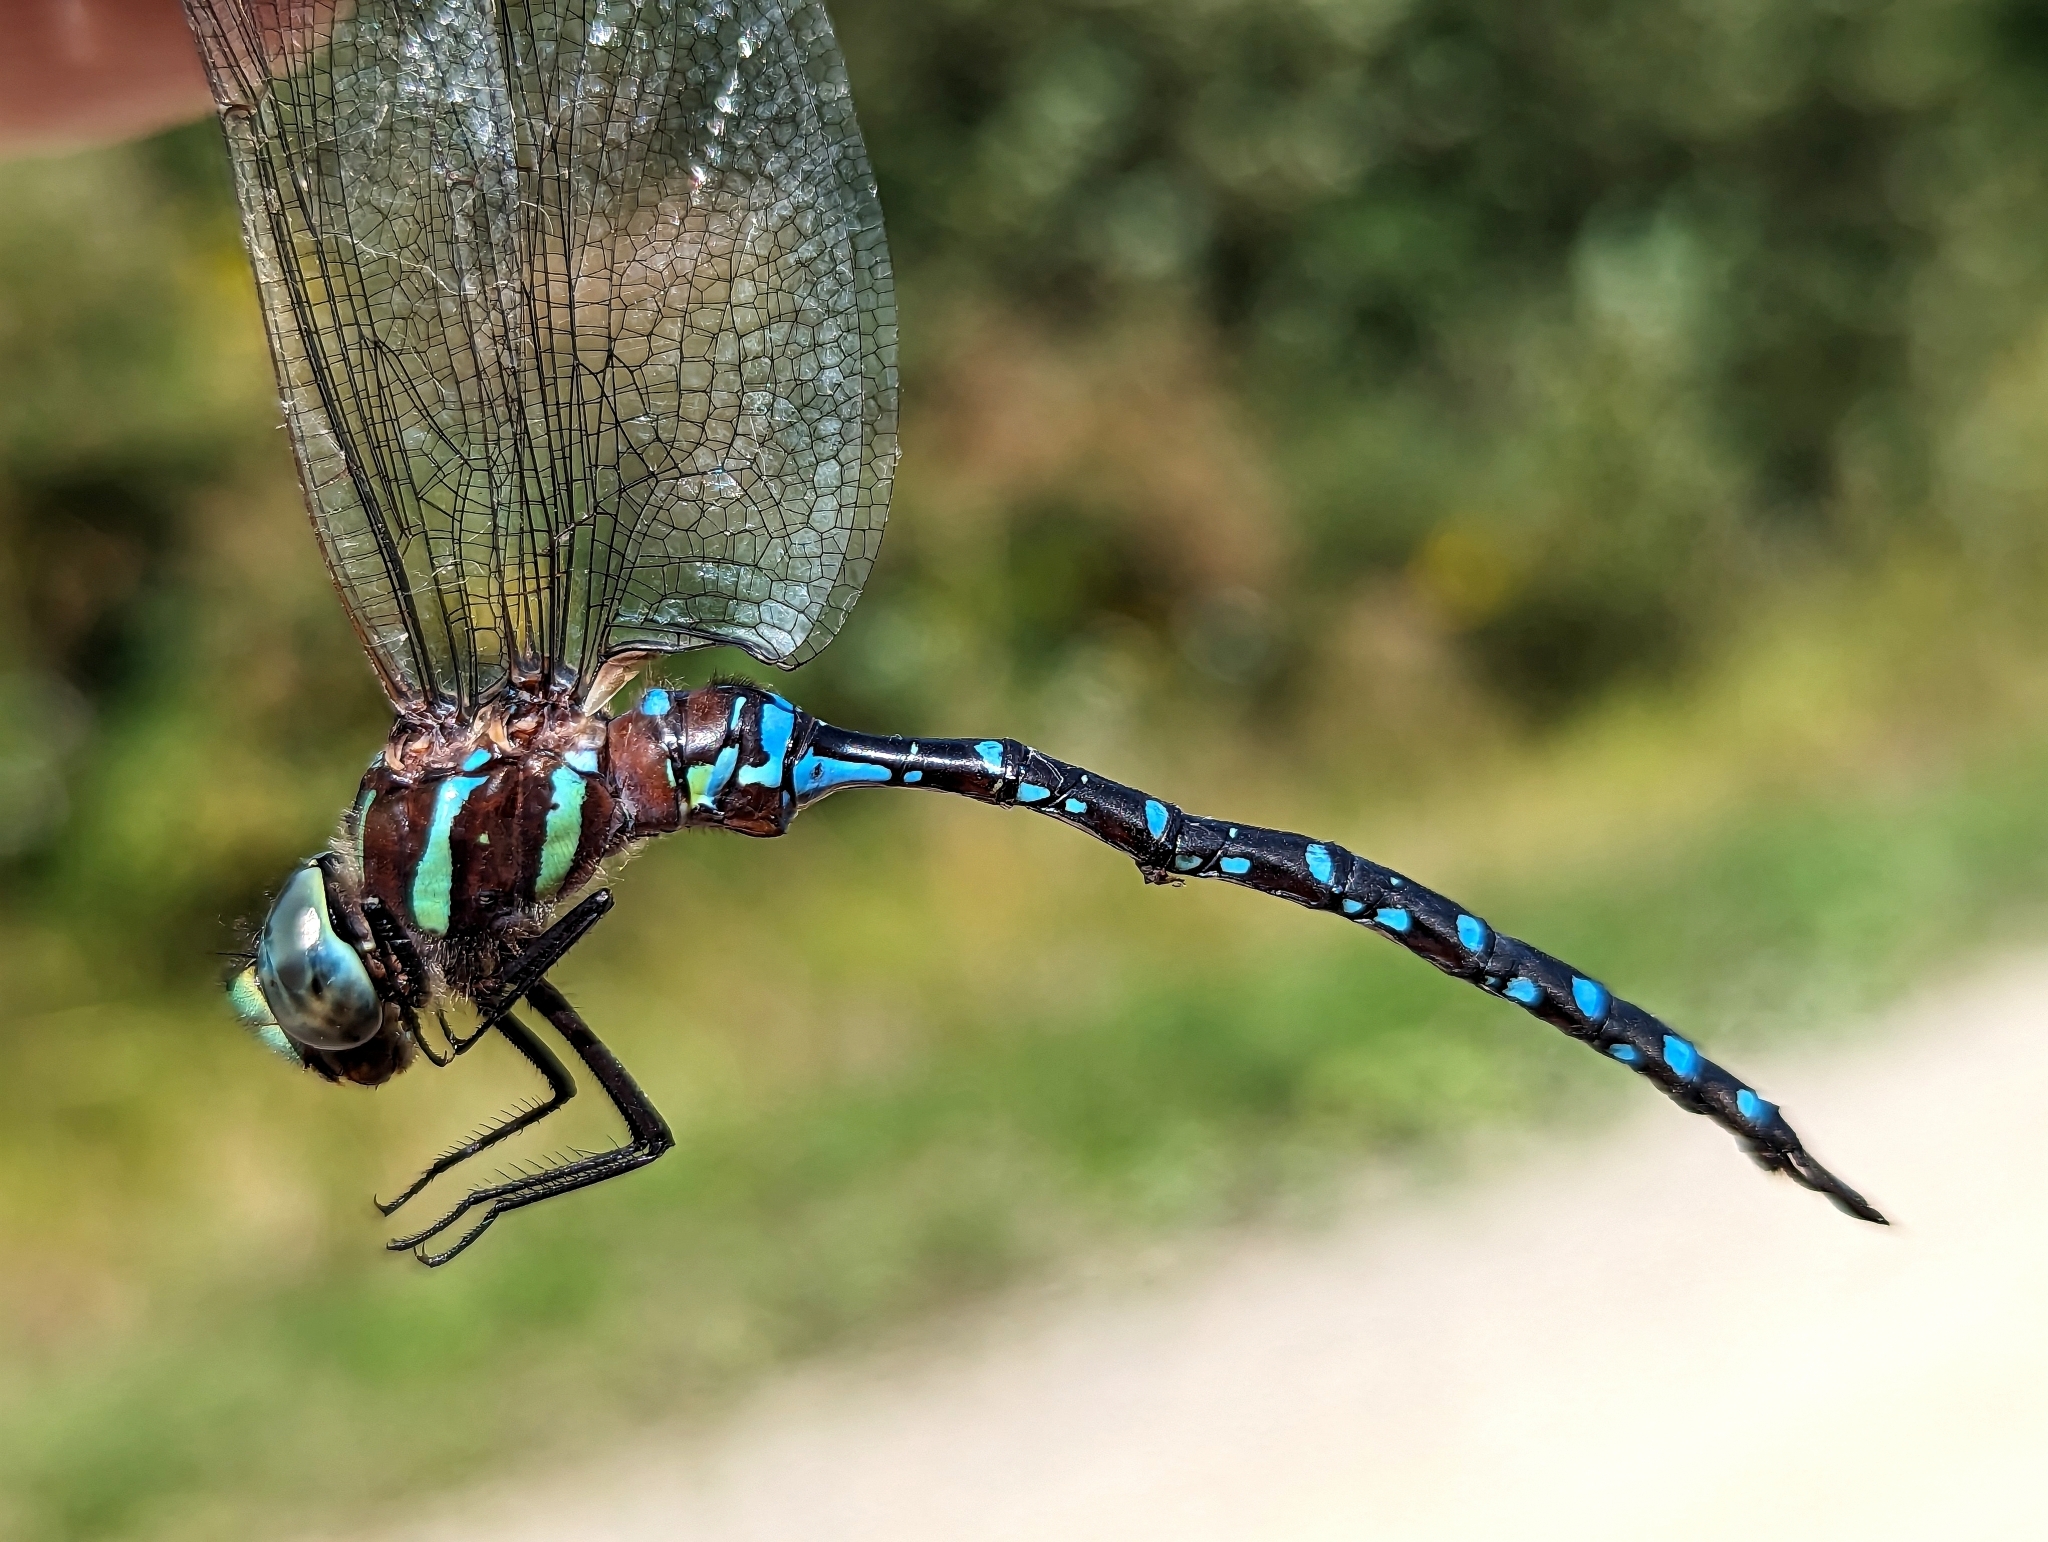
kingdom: Animalia
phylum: Arthropoda
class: Insecta
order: Odonata
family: Aeshnidae
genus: Aeshna
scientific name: Aeshna tuberculifera
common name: Aeschne à tubercules
